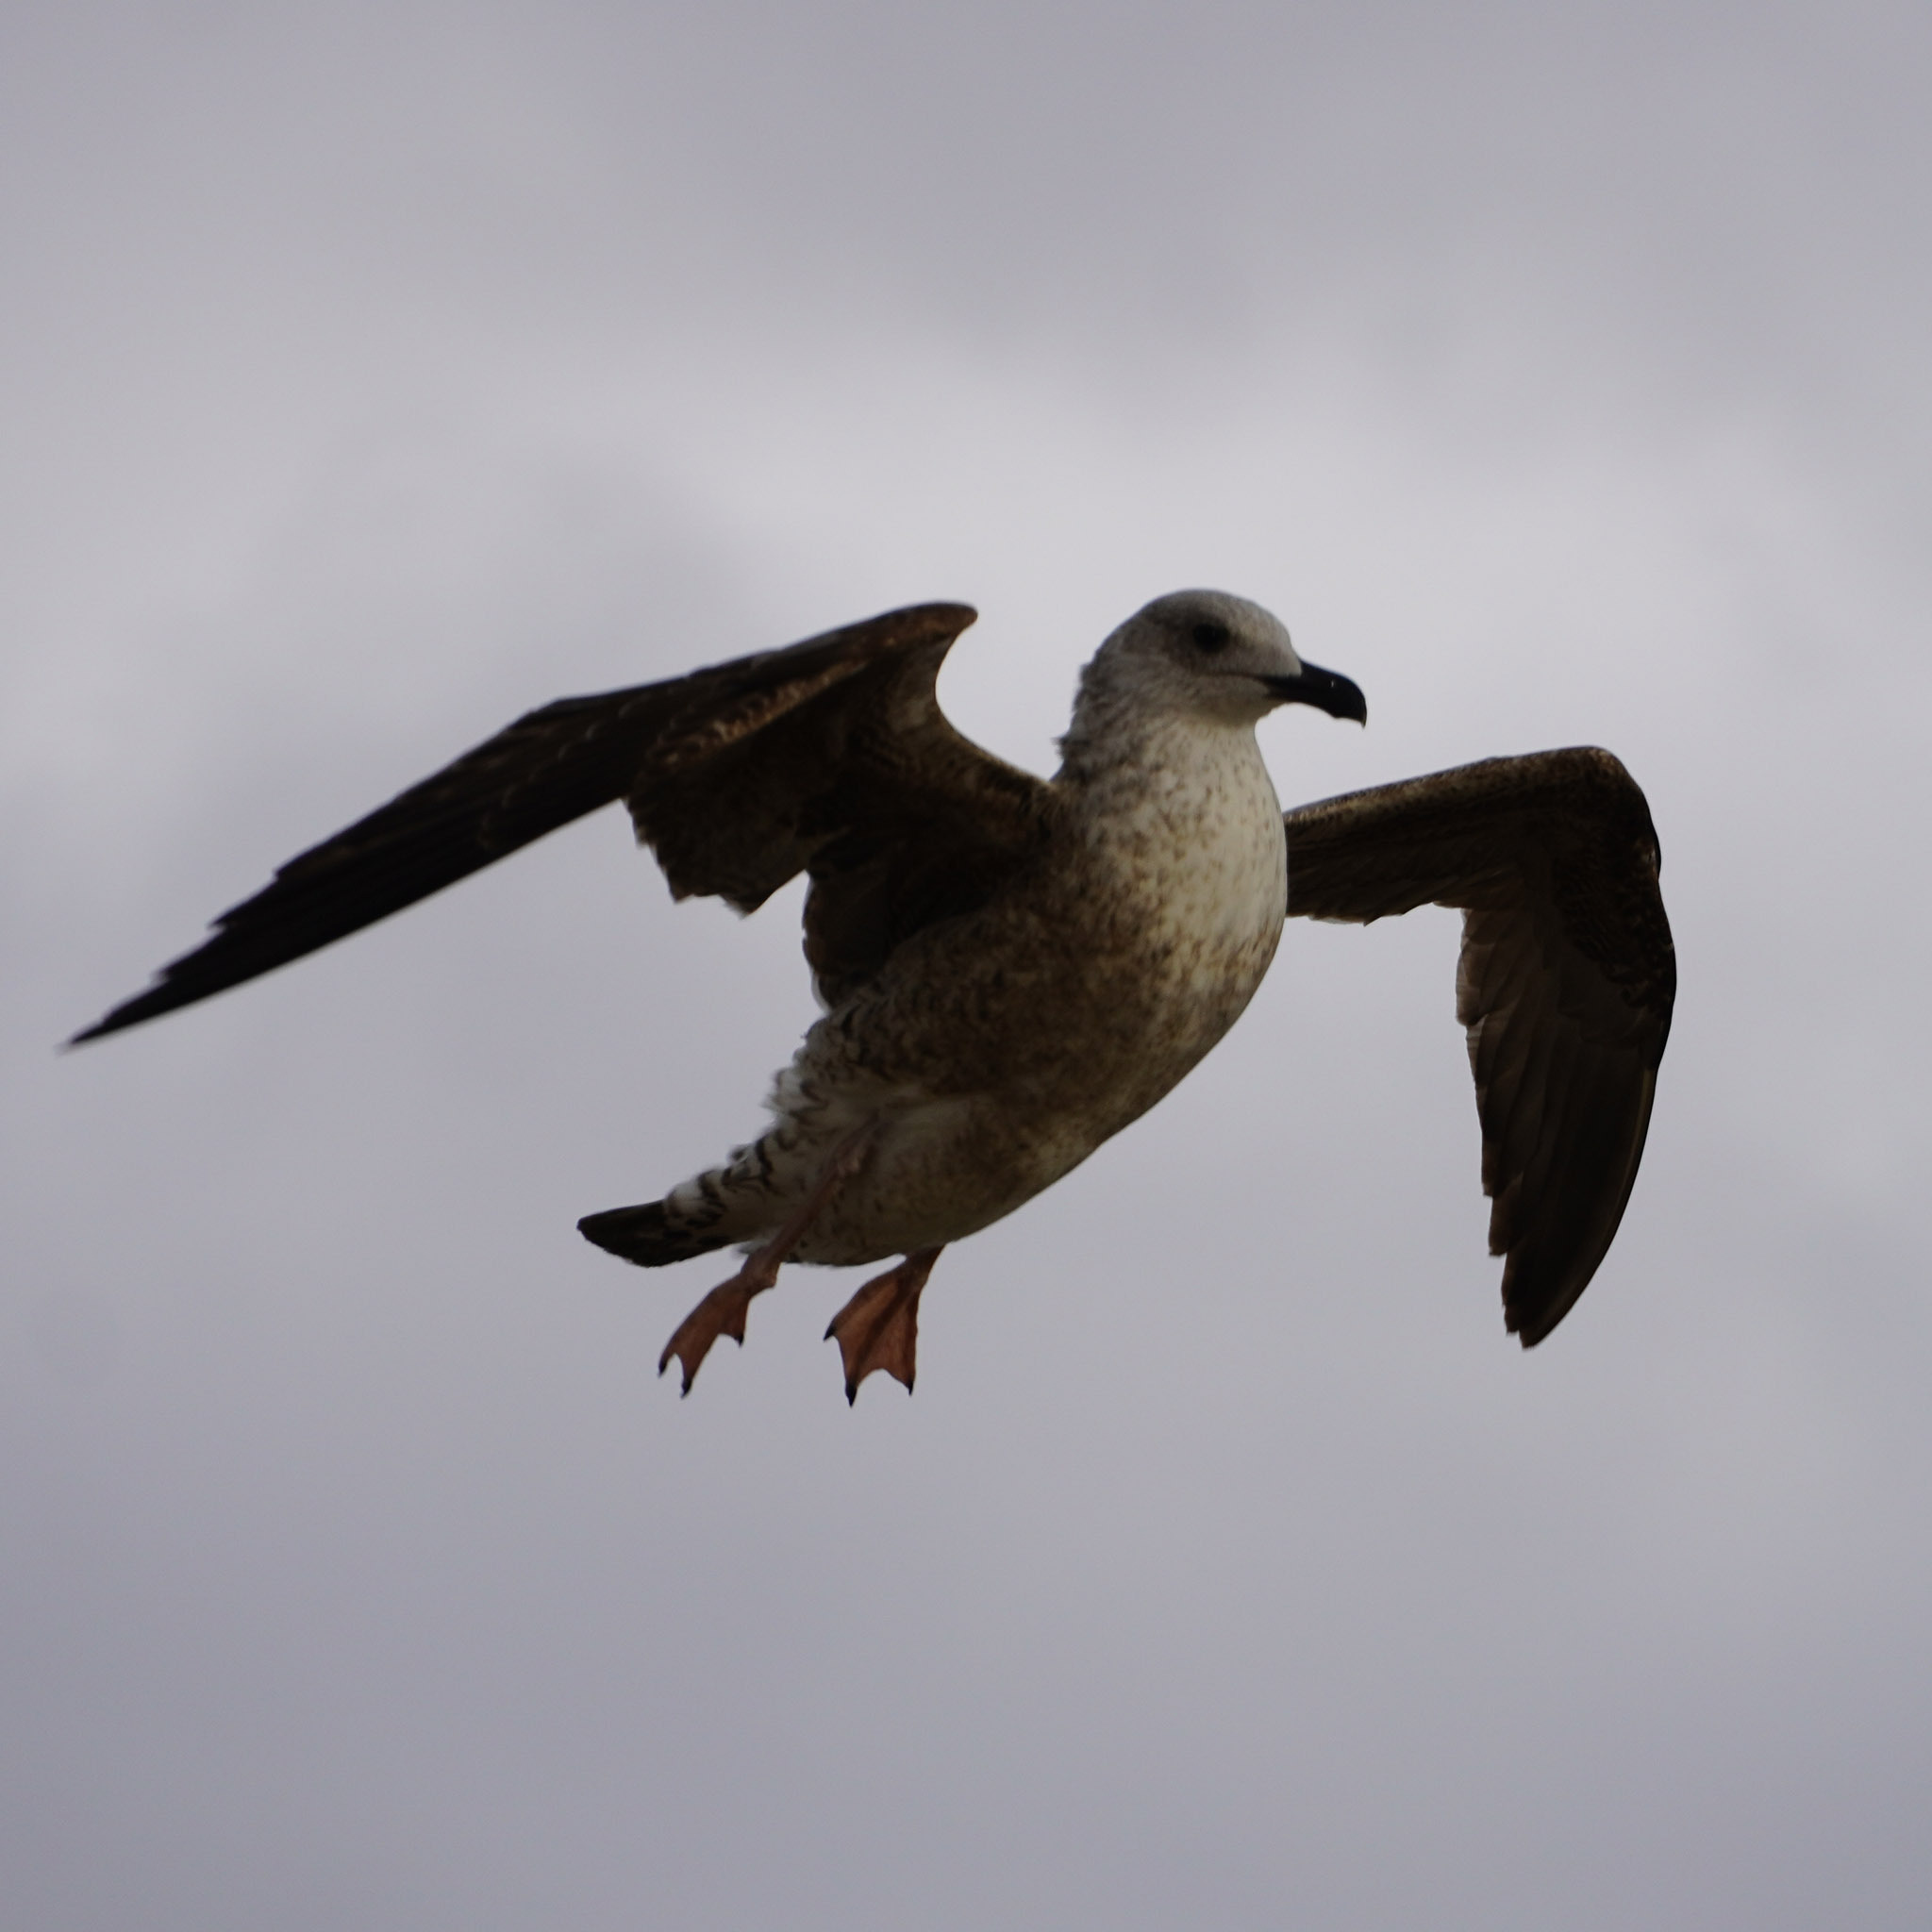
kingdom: Animalia
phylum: Chordata
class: Aves
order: Charadriiformes
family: Laridae
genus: Larus
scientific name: Larus michahellis
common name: Yellow-legged gull
